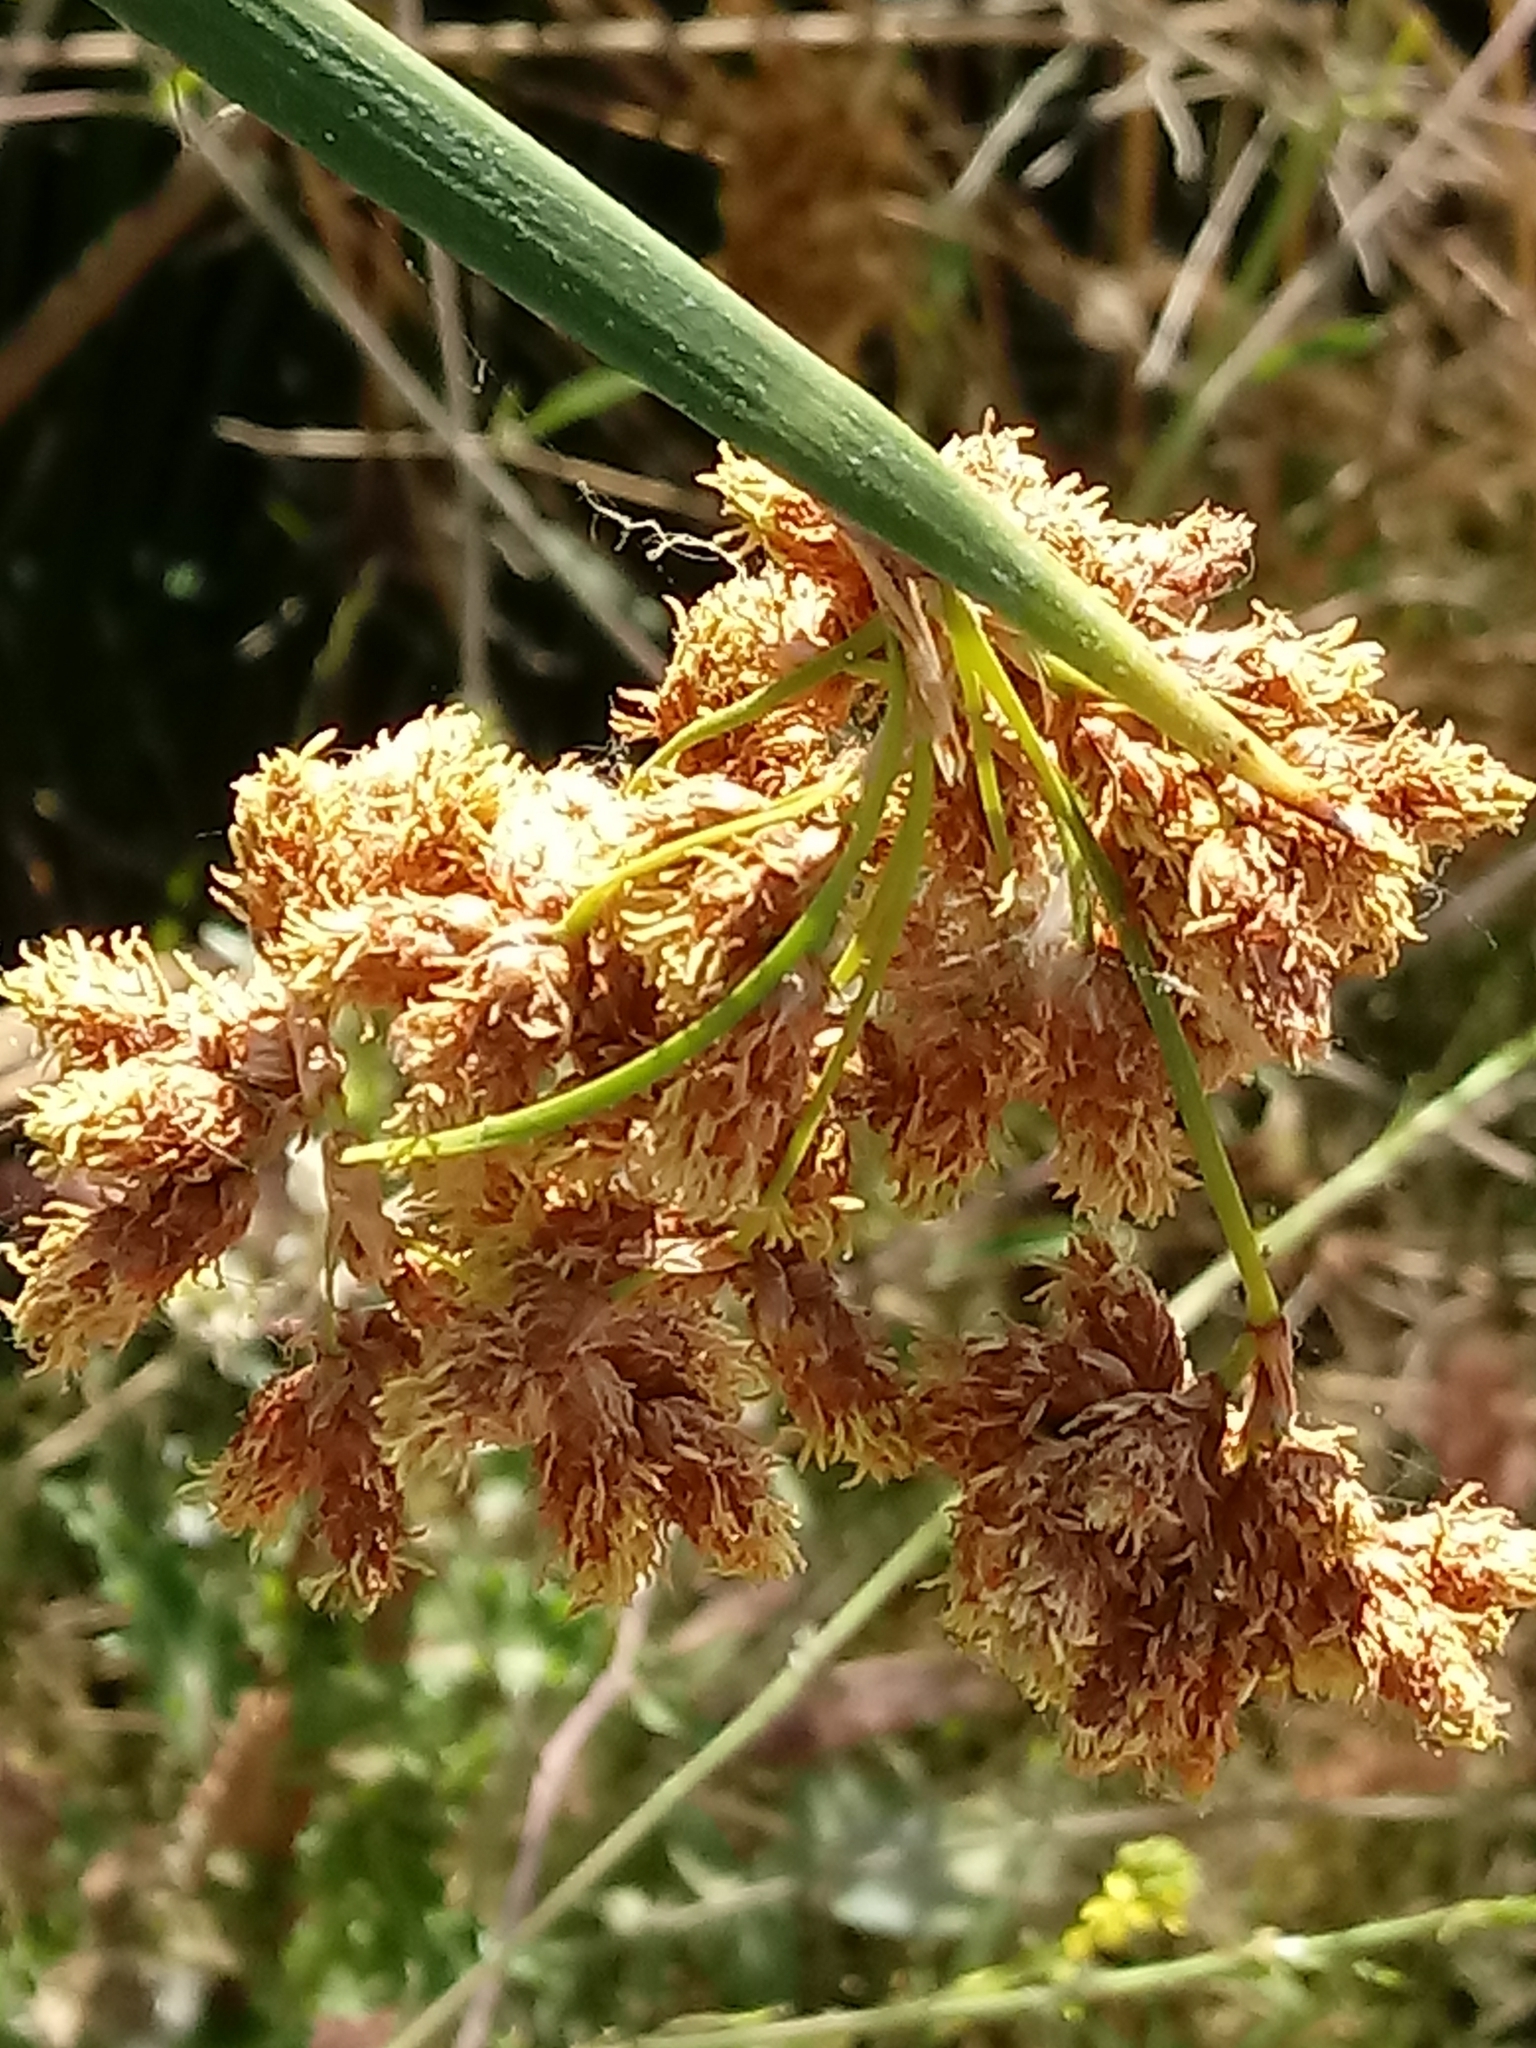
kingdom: Plantae
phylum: Tracheophyta
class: Liliopsida
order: Poales
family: Cyperaceae
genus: Schoenoplectus
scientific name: Schoenoplectus californicus
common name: California bulrush
